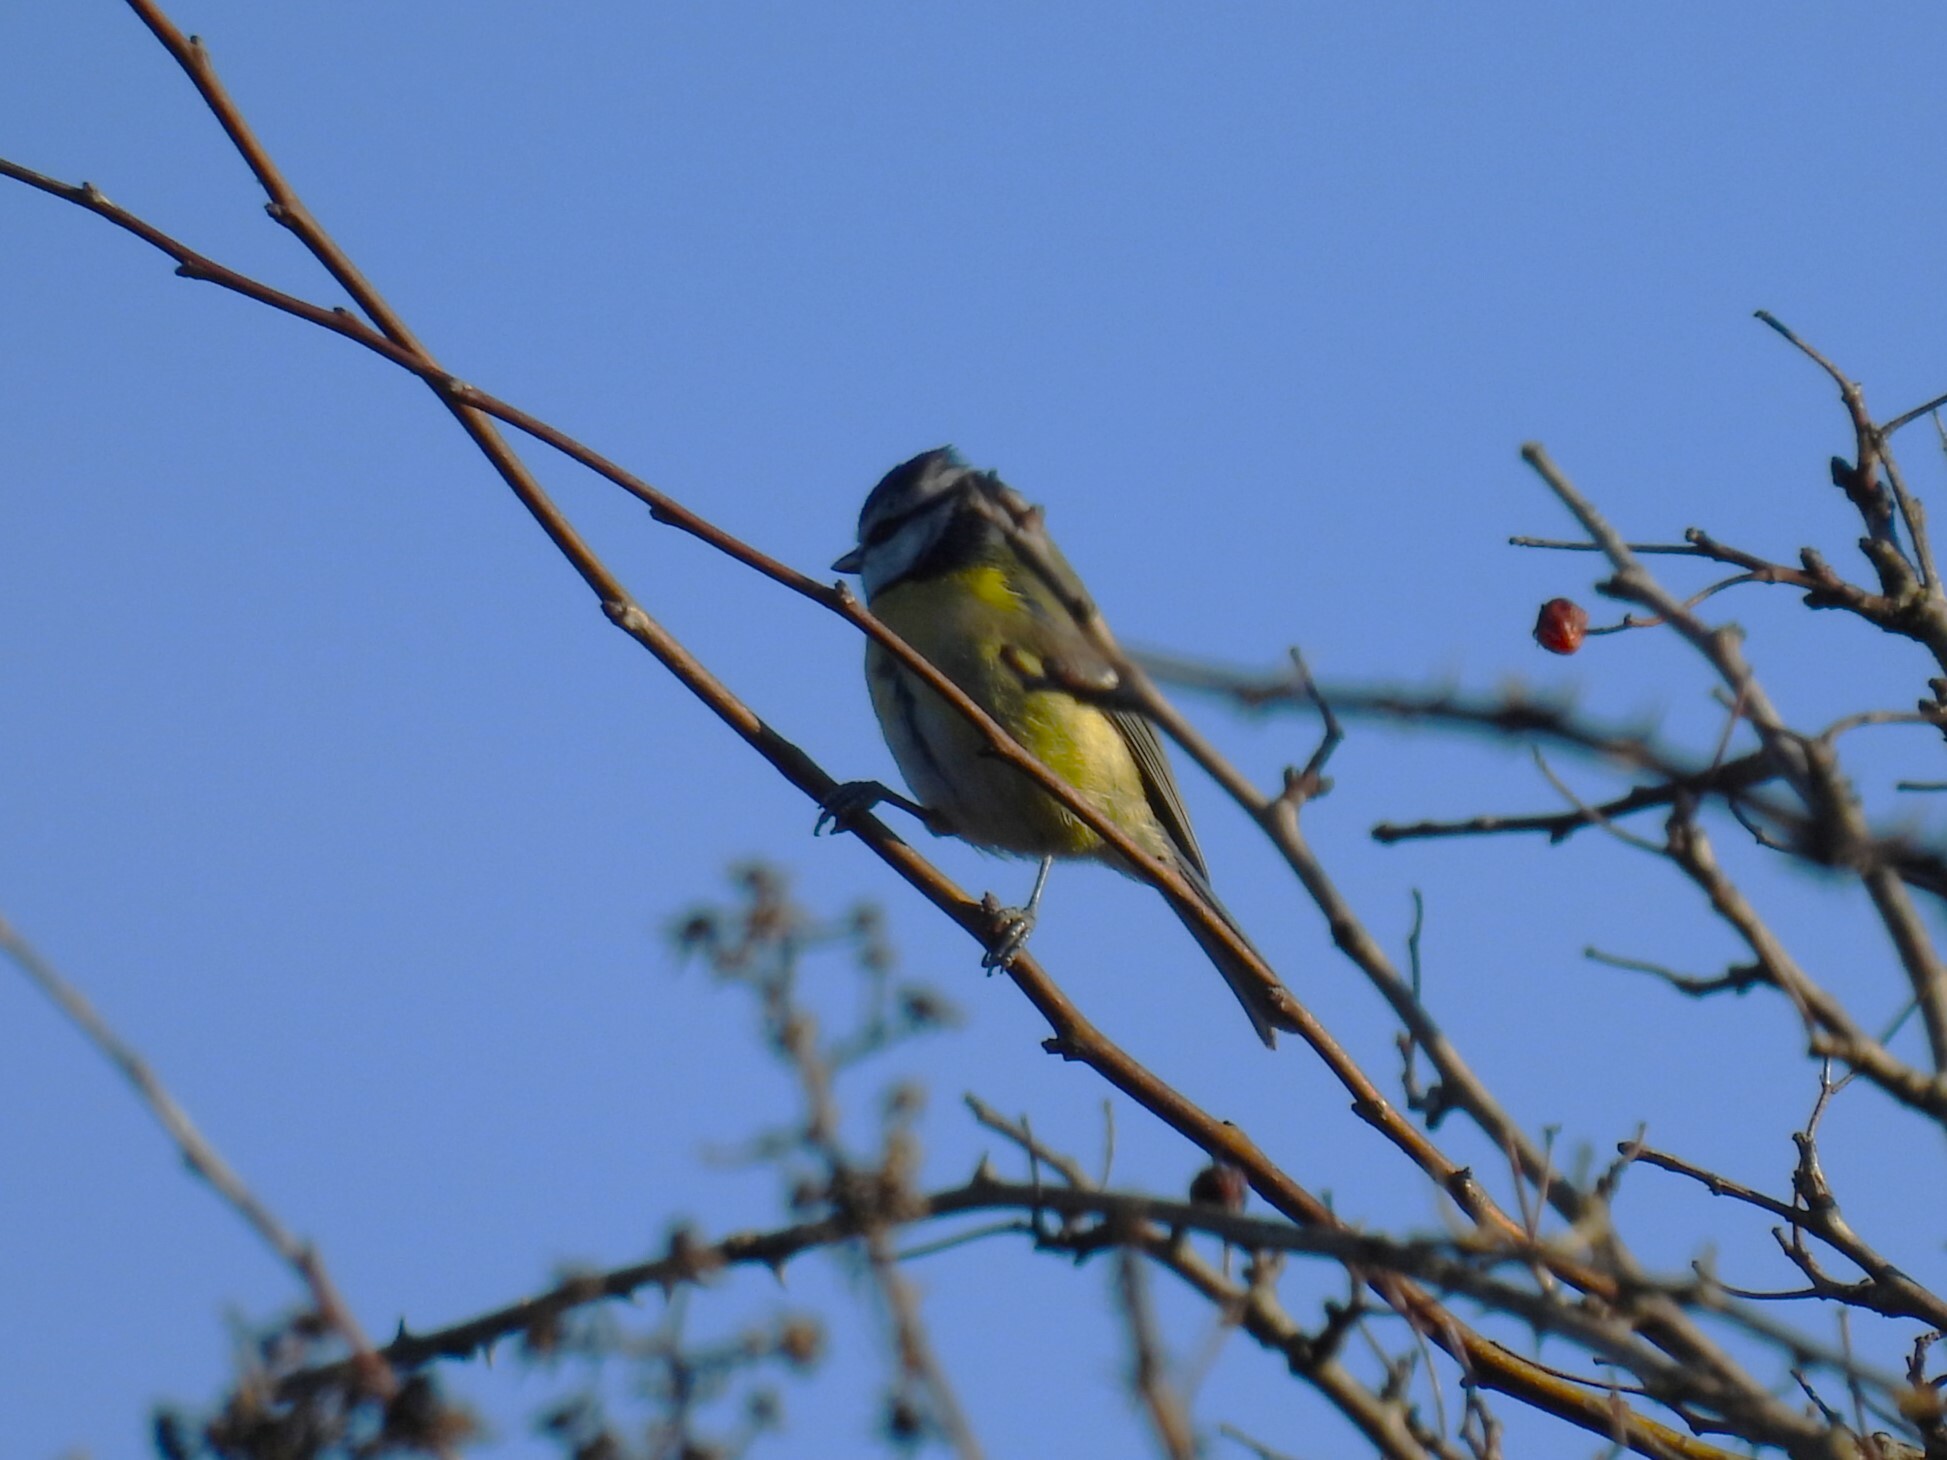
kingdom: Animalia
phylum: Chordata
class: Aves
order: Passeriformes
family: Paridae
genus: Cyanistes
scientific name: Cyanistes caeruleus
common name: Eurasian blue tit
